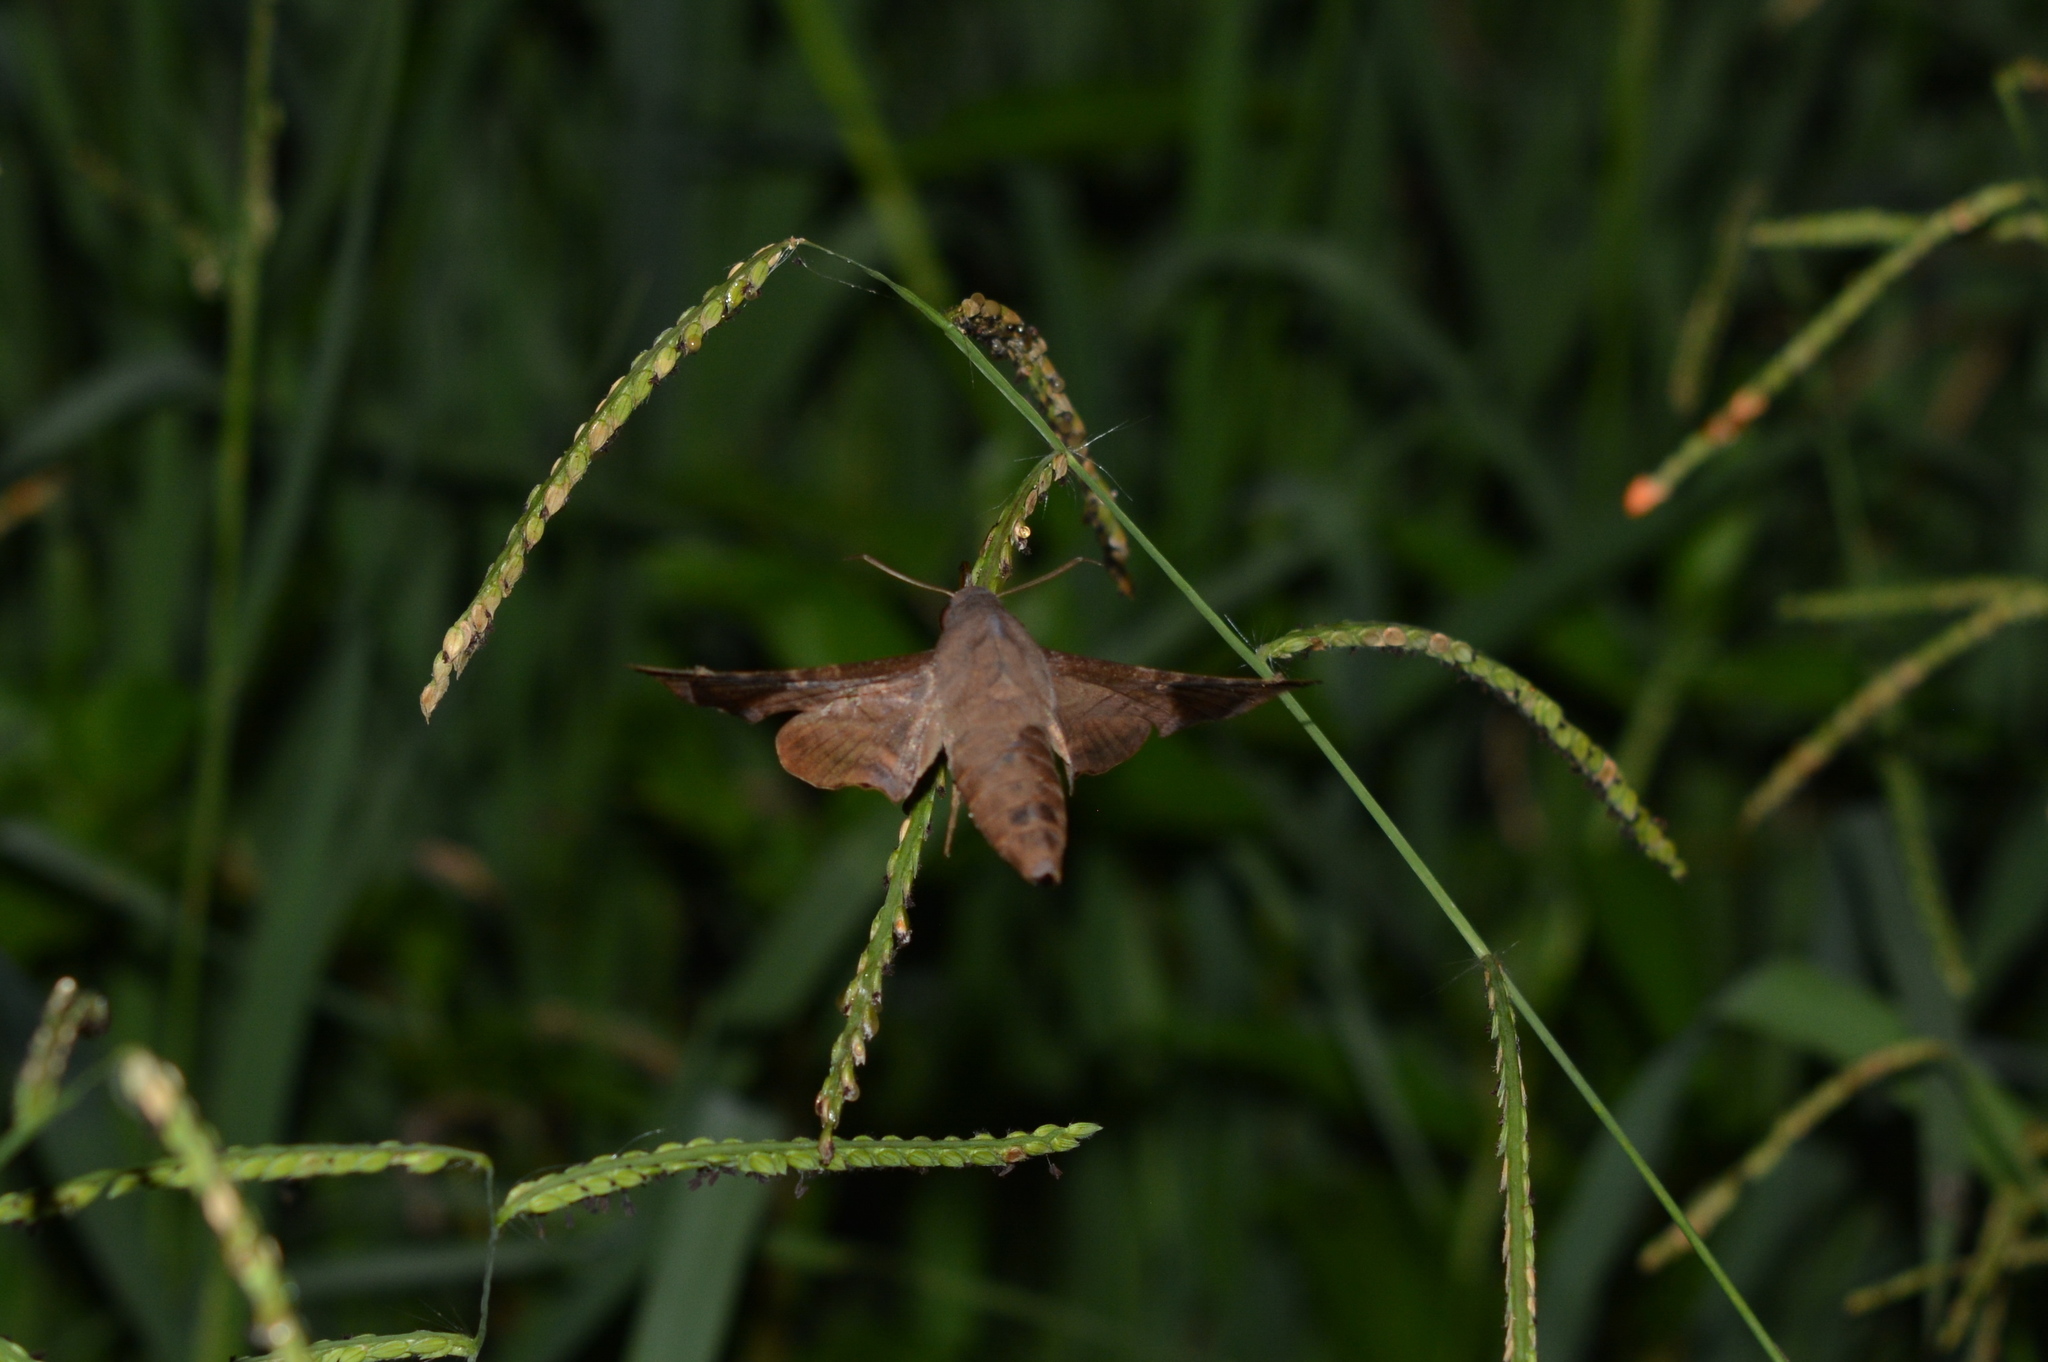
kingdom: Animalia
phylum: Arthropoda
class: Insecta
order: Lepidoptera
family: Sphingidae
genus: Enyo
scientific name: Enyo lugubris
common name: Mournful sphinx
